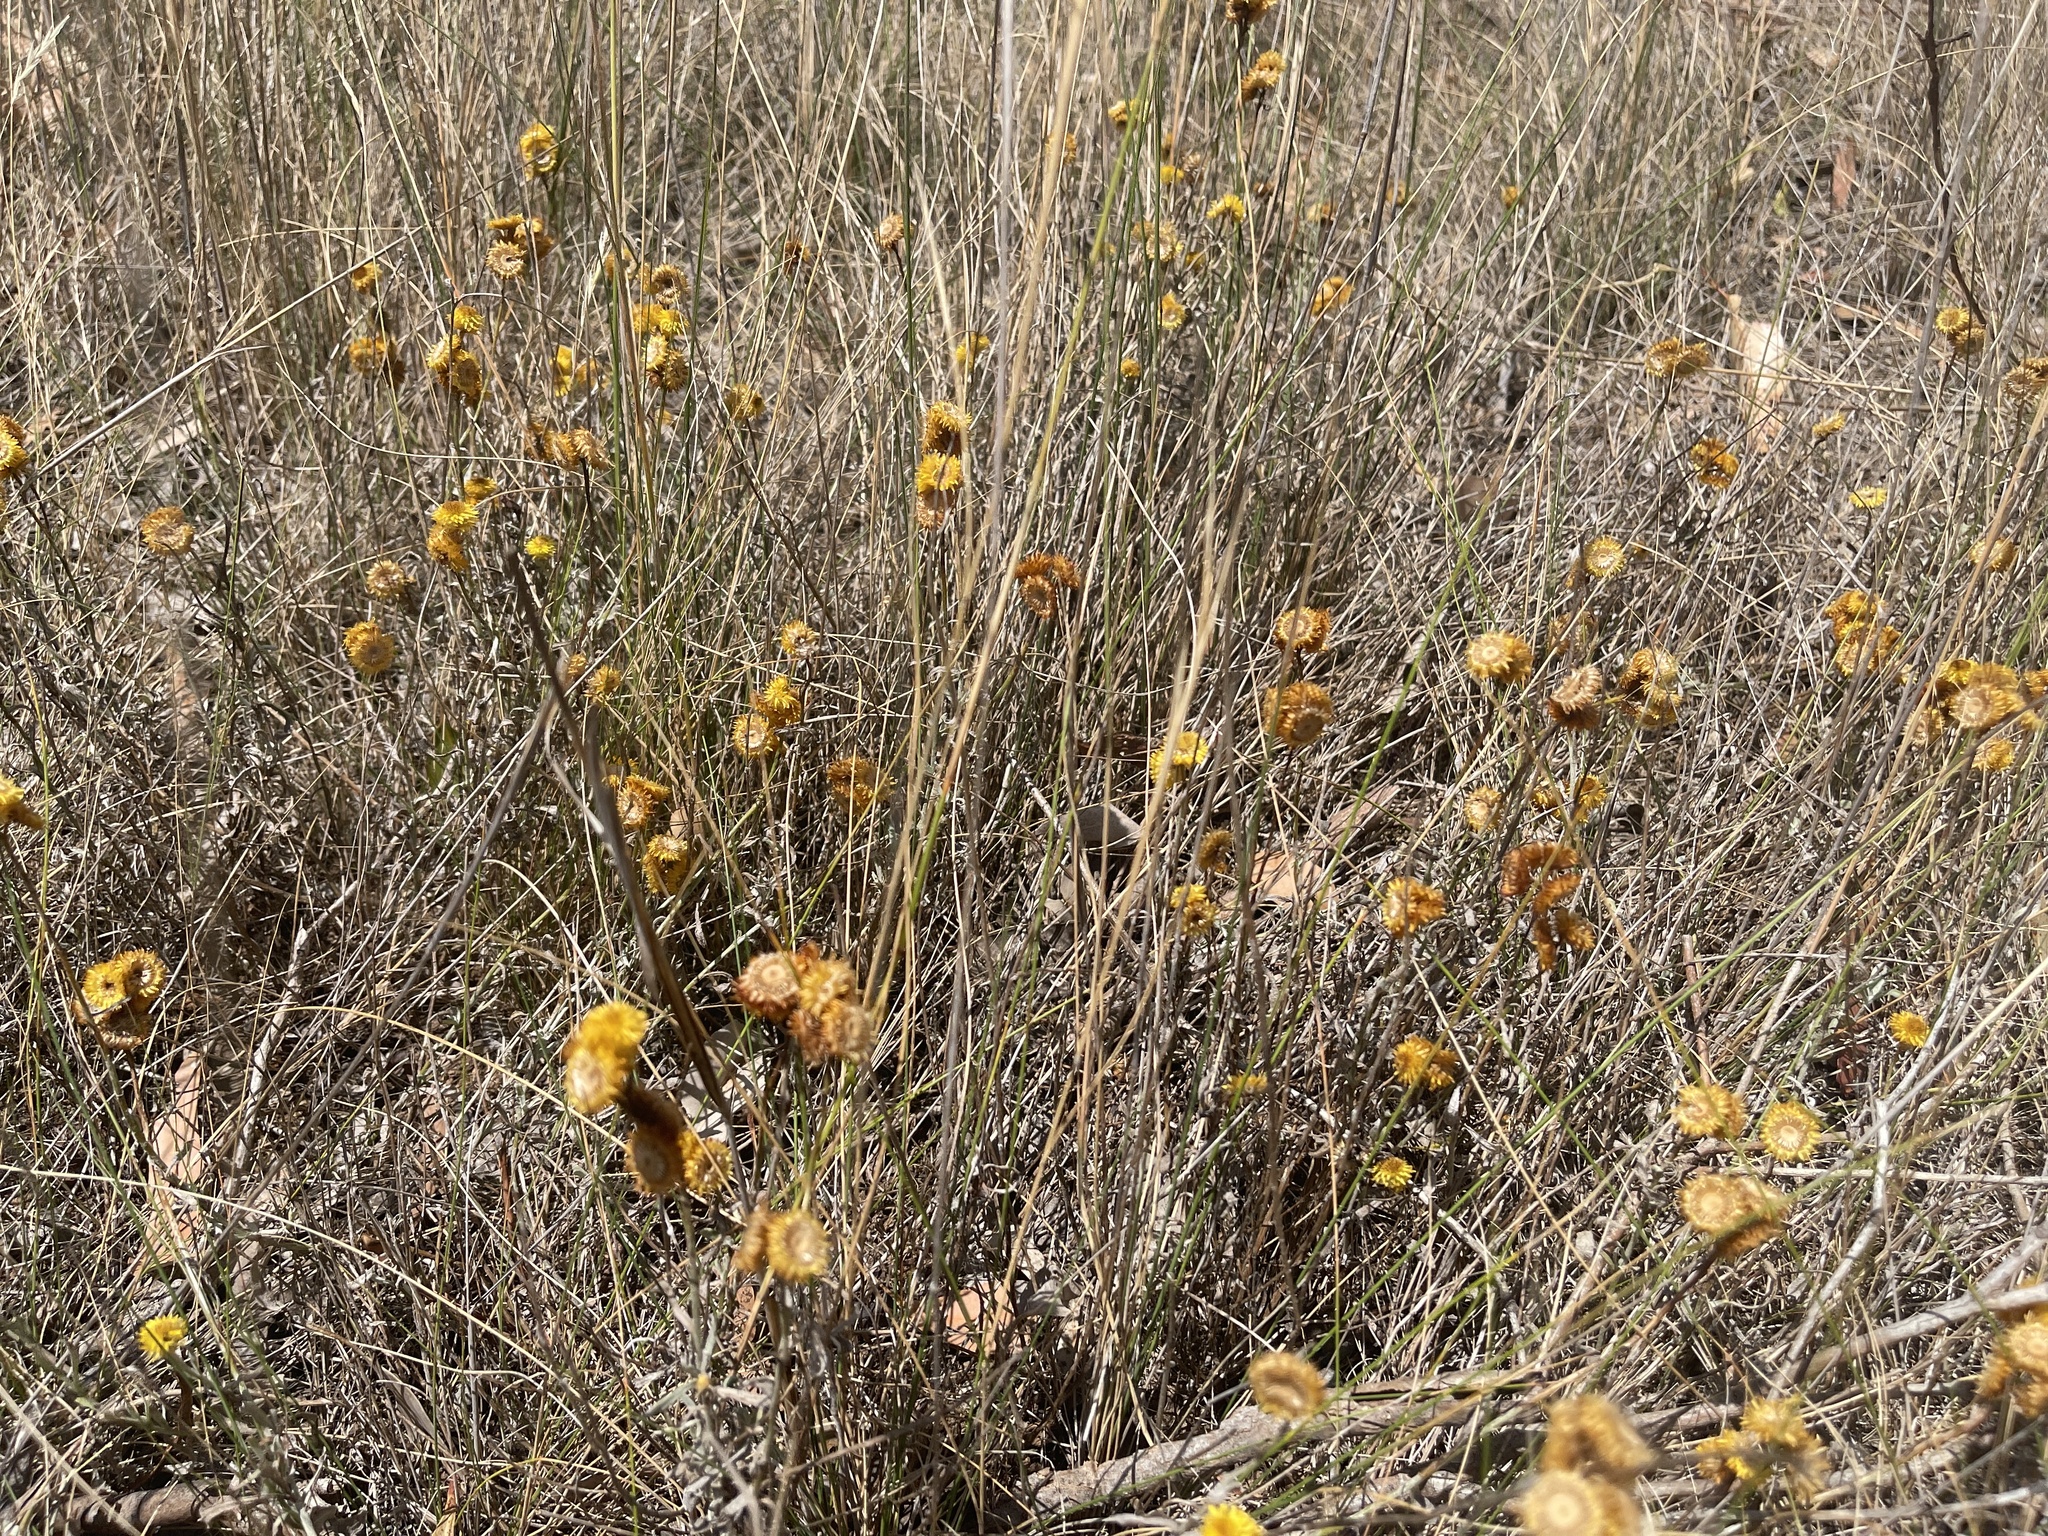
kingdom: Plantae
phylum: Tracheophyta
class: Magnoliopsida
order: Asterales
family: Asteraceae
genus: Chrysocephalum
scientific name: Chrysocephalum apiculatum
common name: Common everlasting
